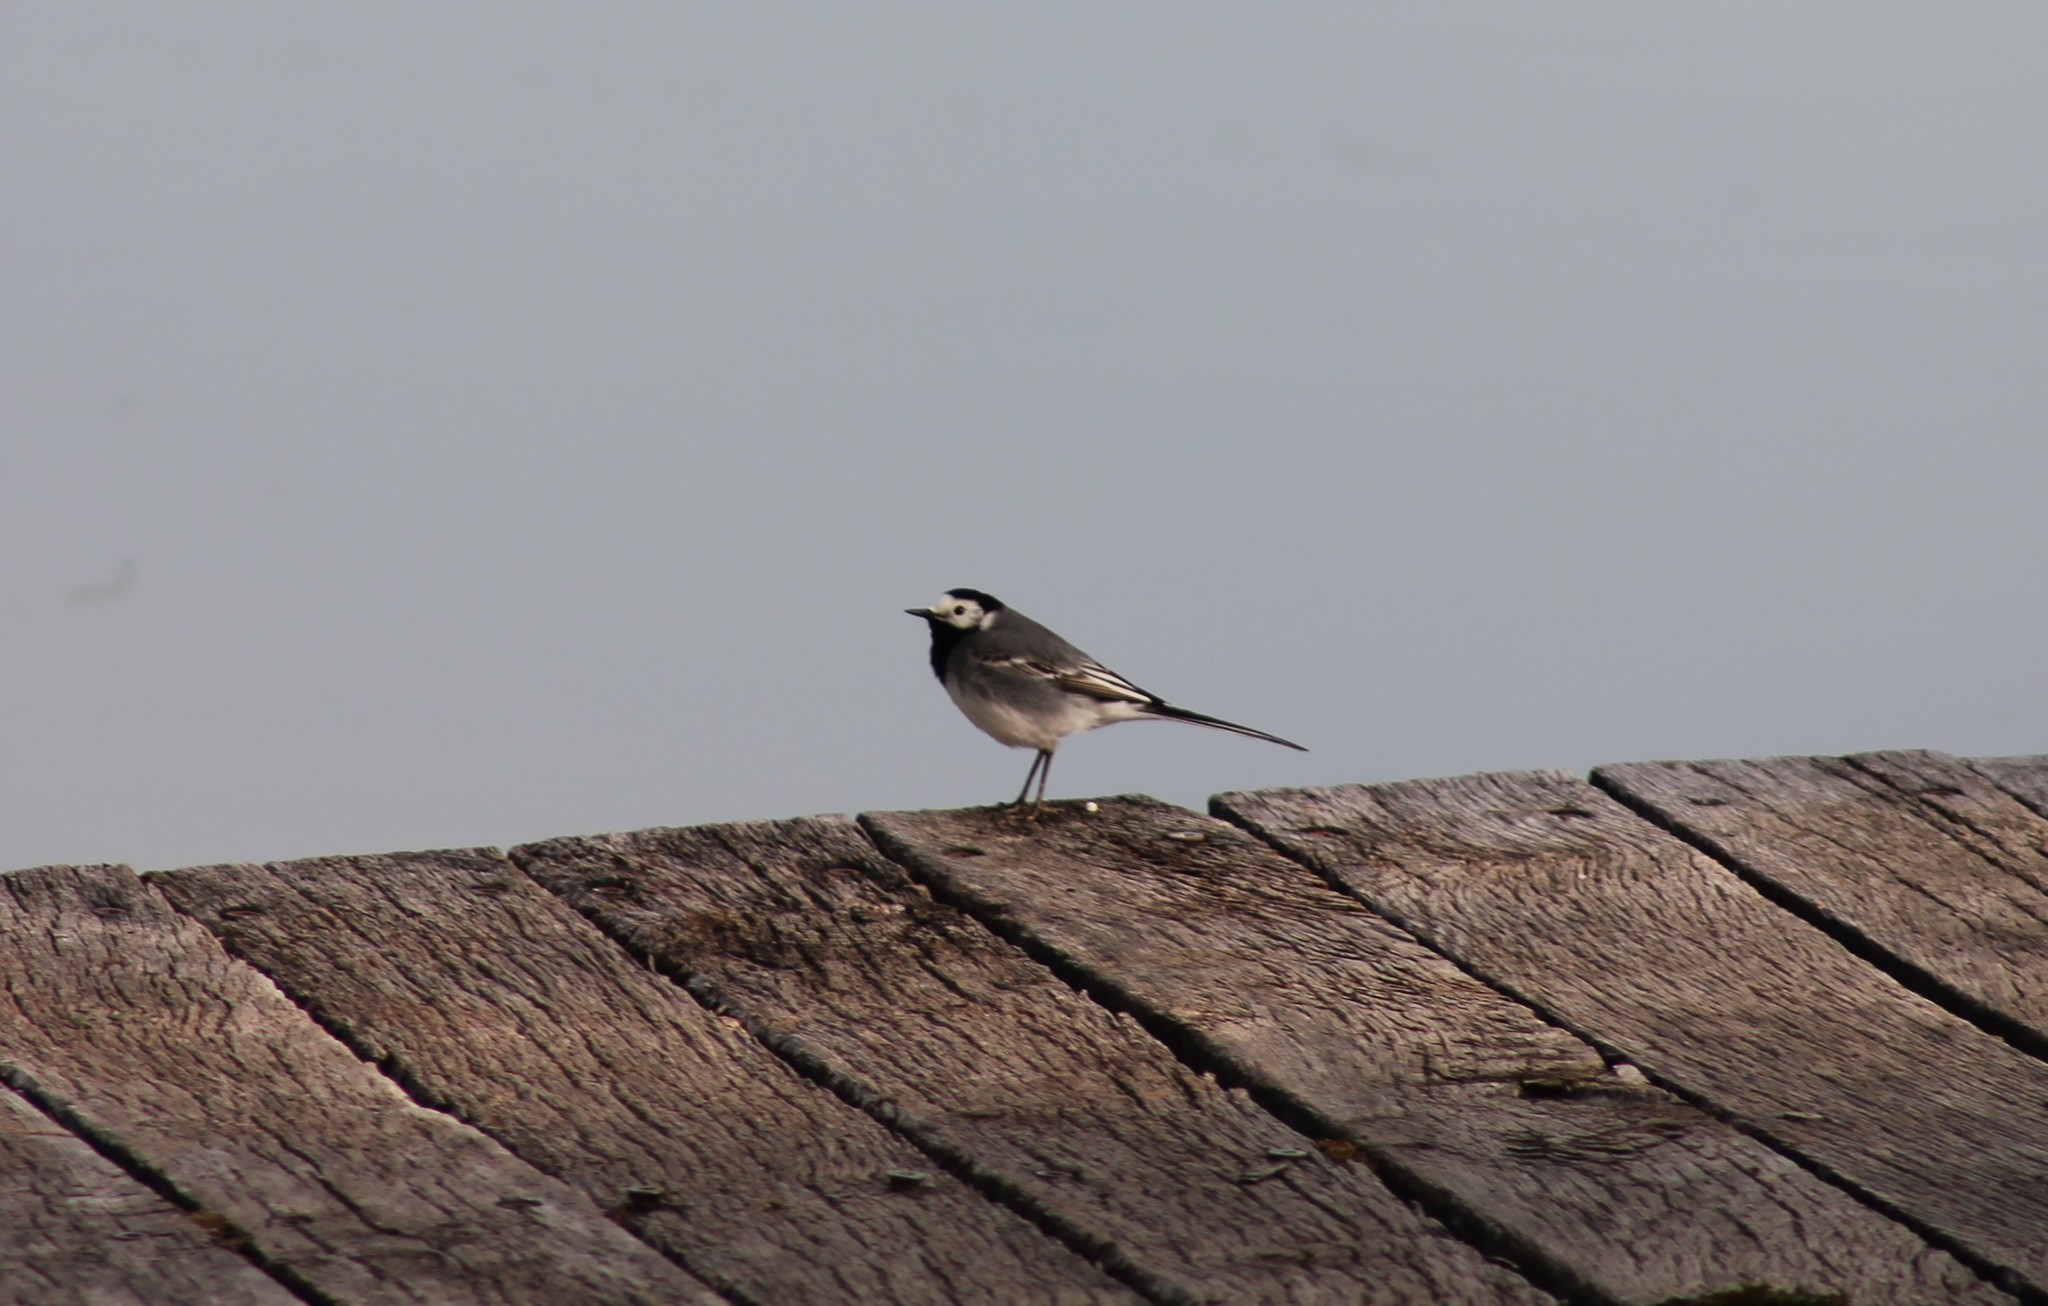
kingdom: Animalia
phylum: Chordata
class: Aves
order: Passeriformes
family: Motacillidae
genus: Motacilla
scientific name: Motacilla alba
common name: White wagtail
